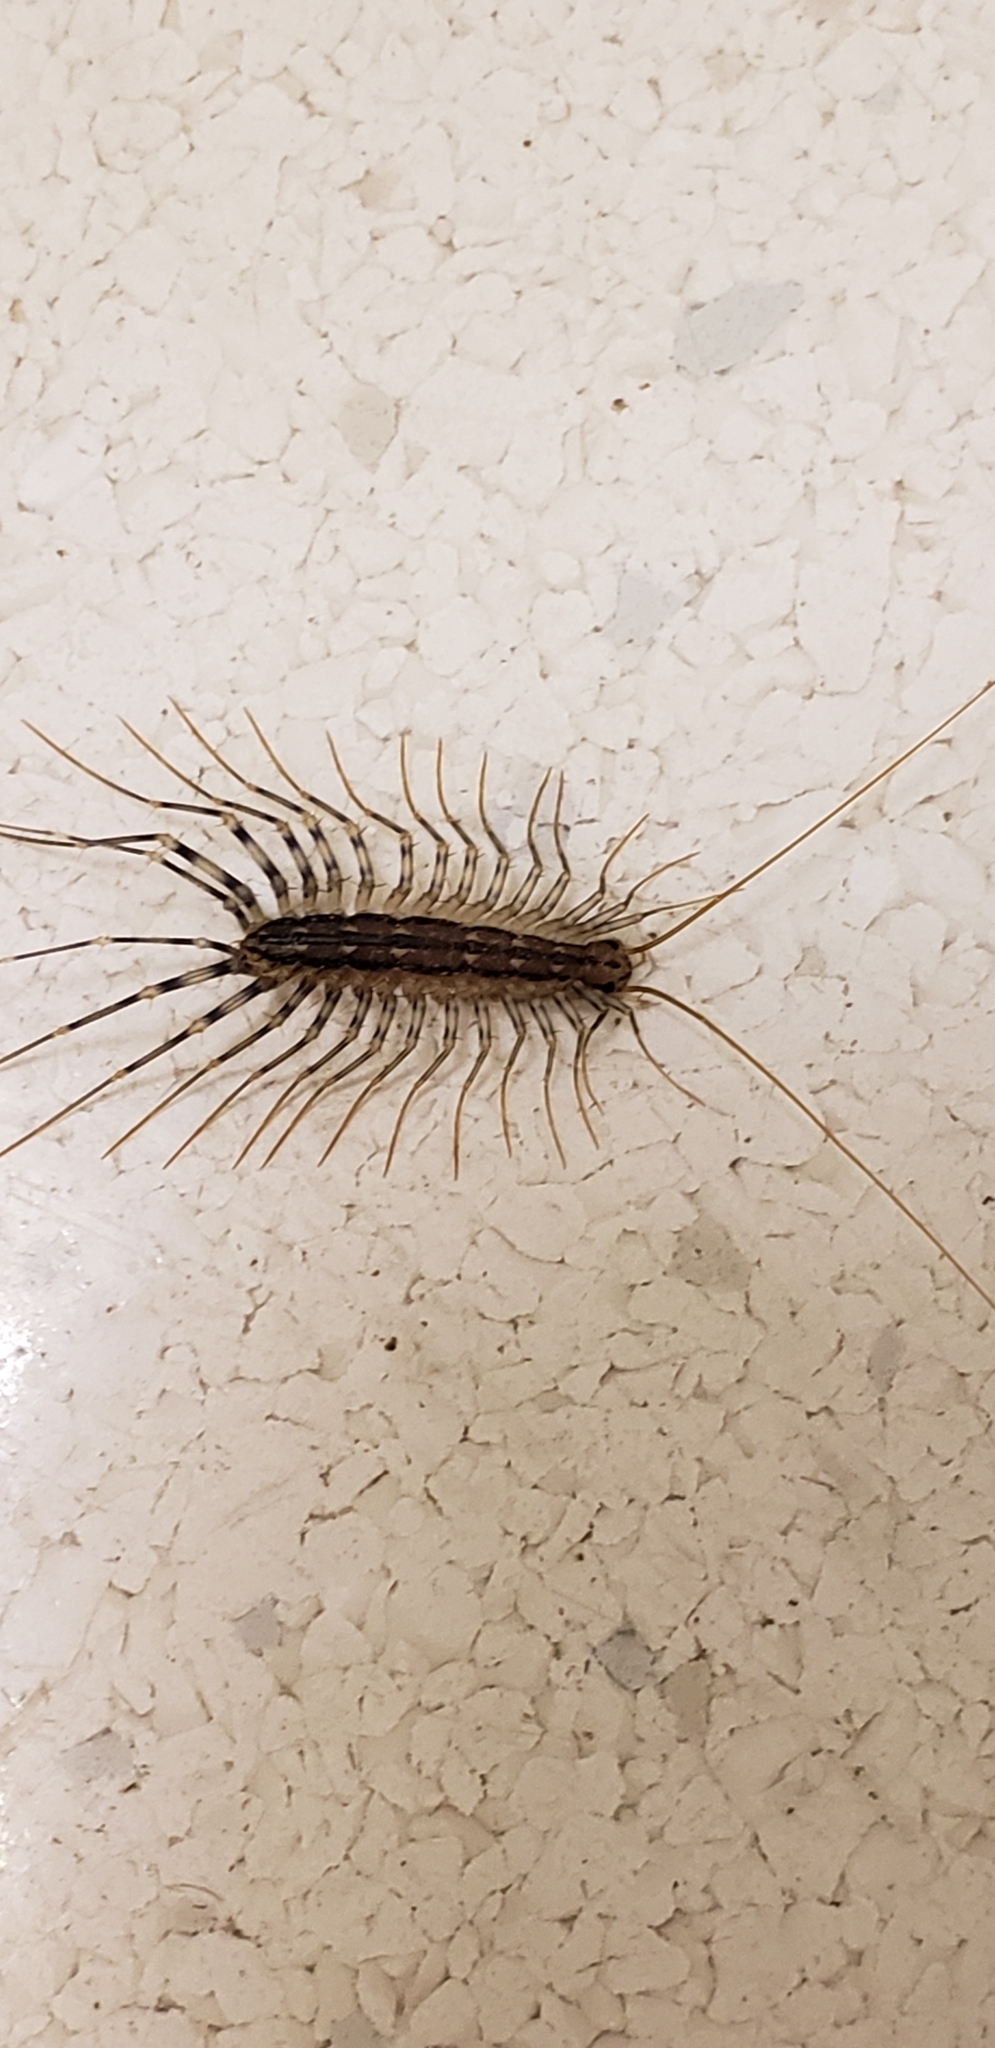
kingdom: Animalia
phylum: Arthropoda
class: Chilopoda
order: Scutigeromorpha
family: Scutigeridae
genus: Scutigera
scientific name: Scutigera coleoptrata
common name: House centipede
